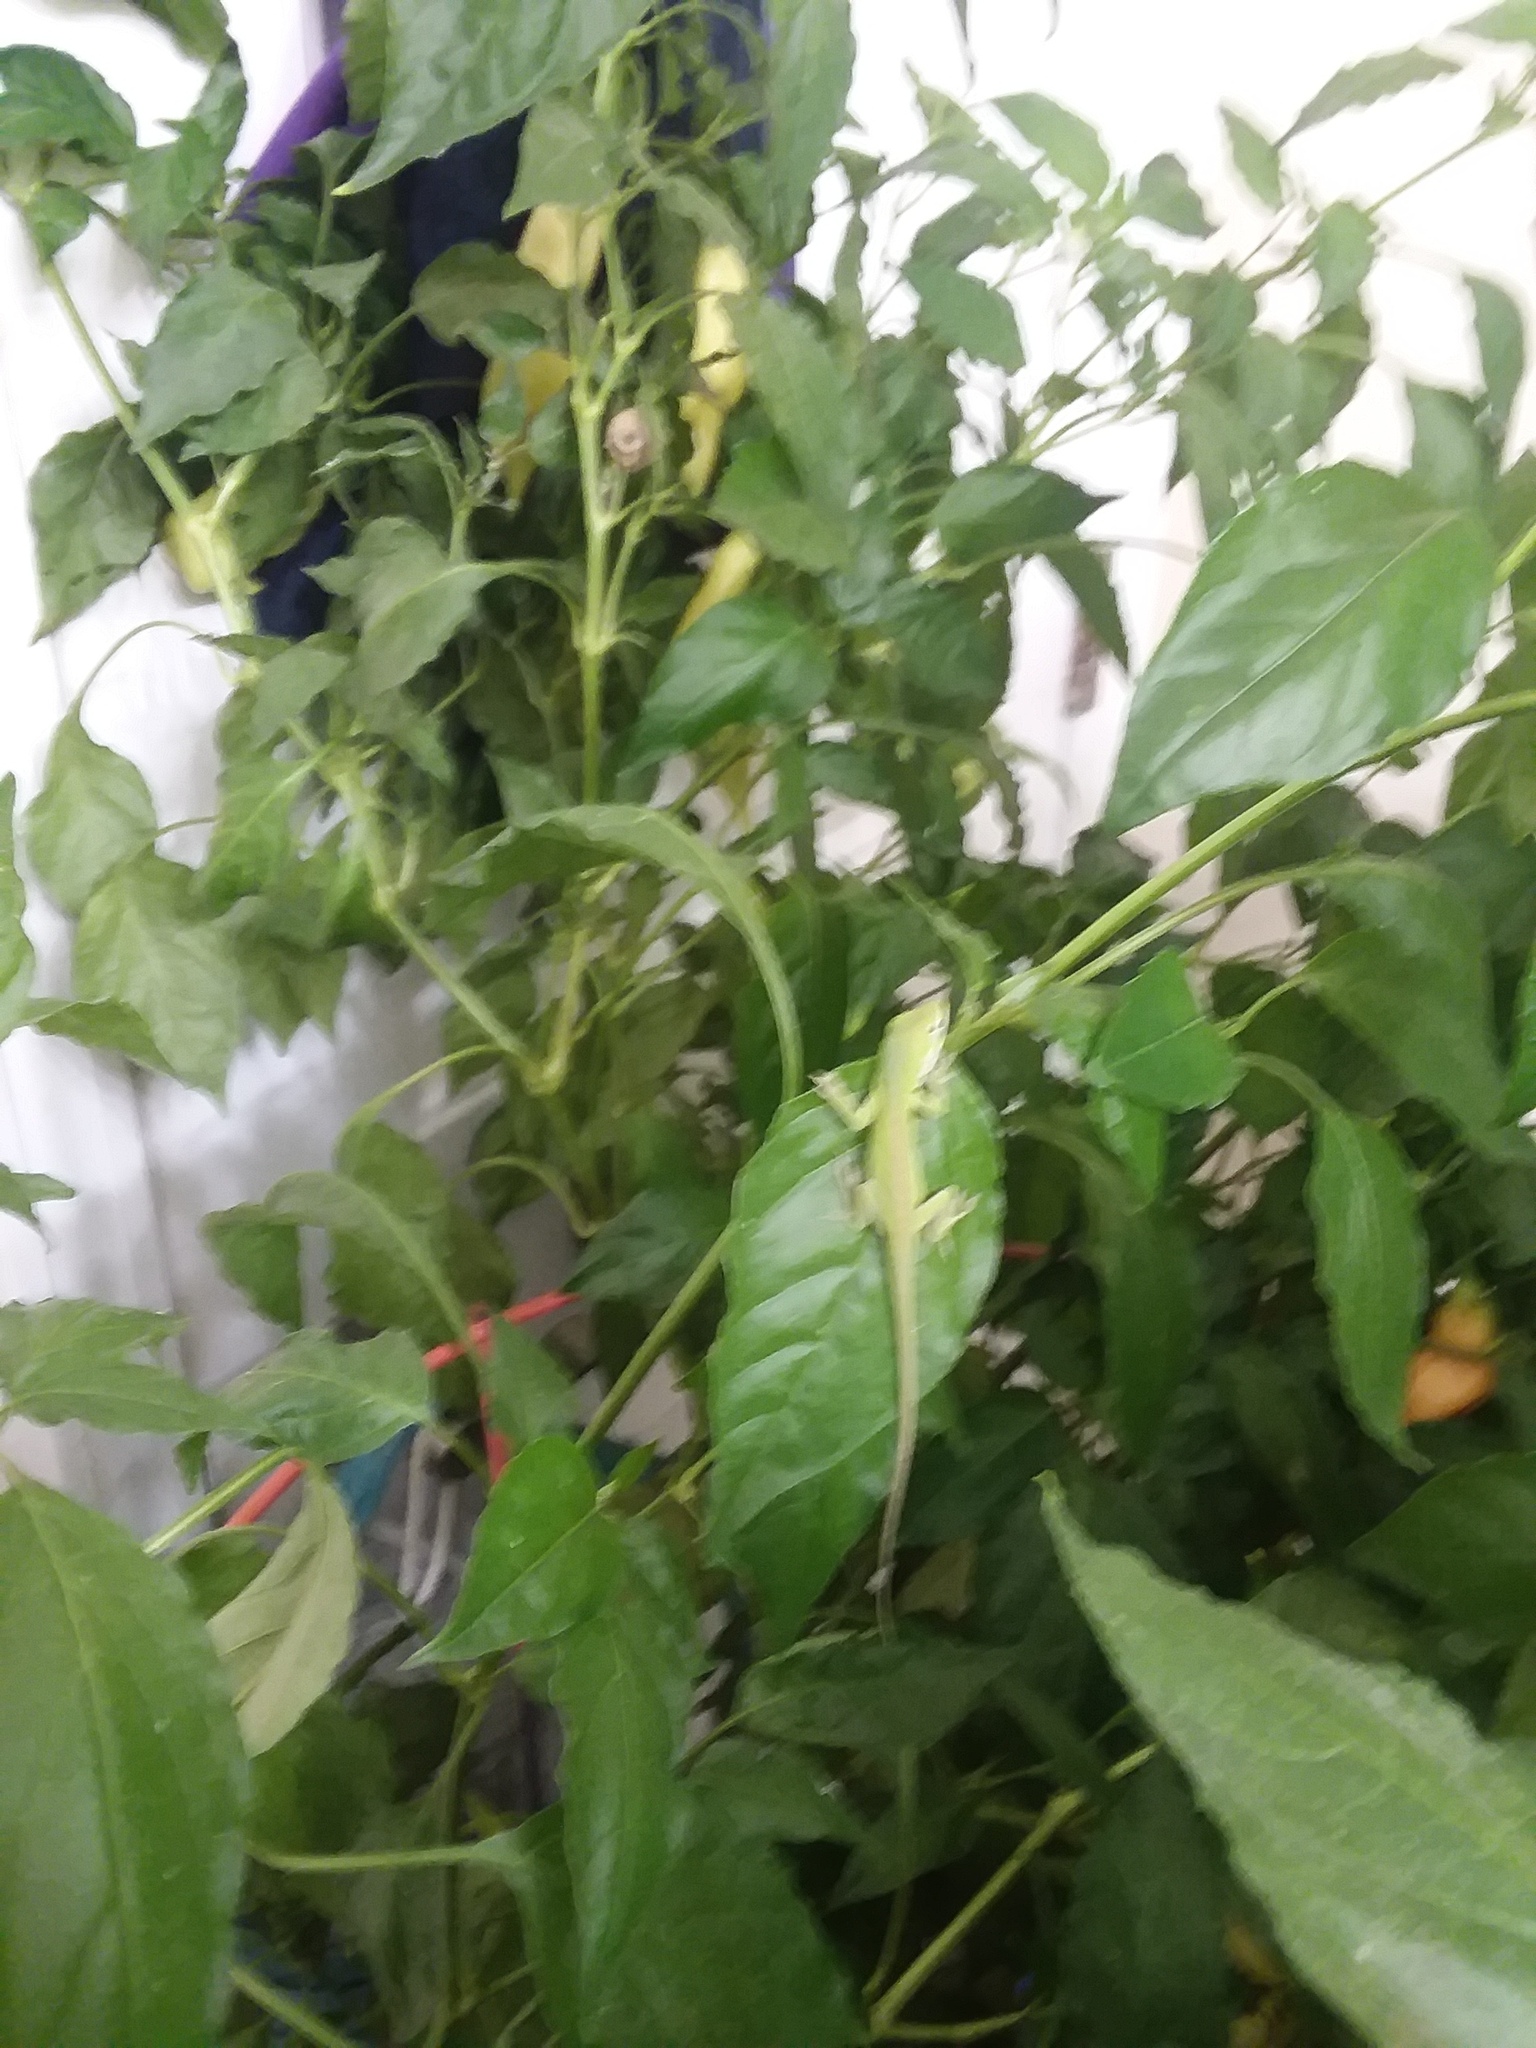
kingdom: Animalia
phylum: Chordata
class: Squamata
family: Dactyloidae
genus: Anolis
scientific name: Anolis carolinensis
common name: Green anole
